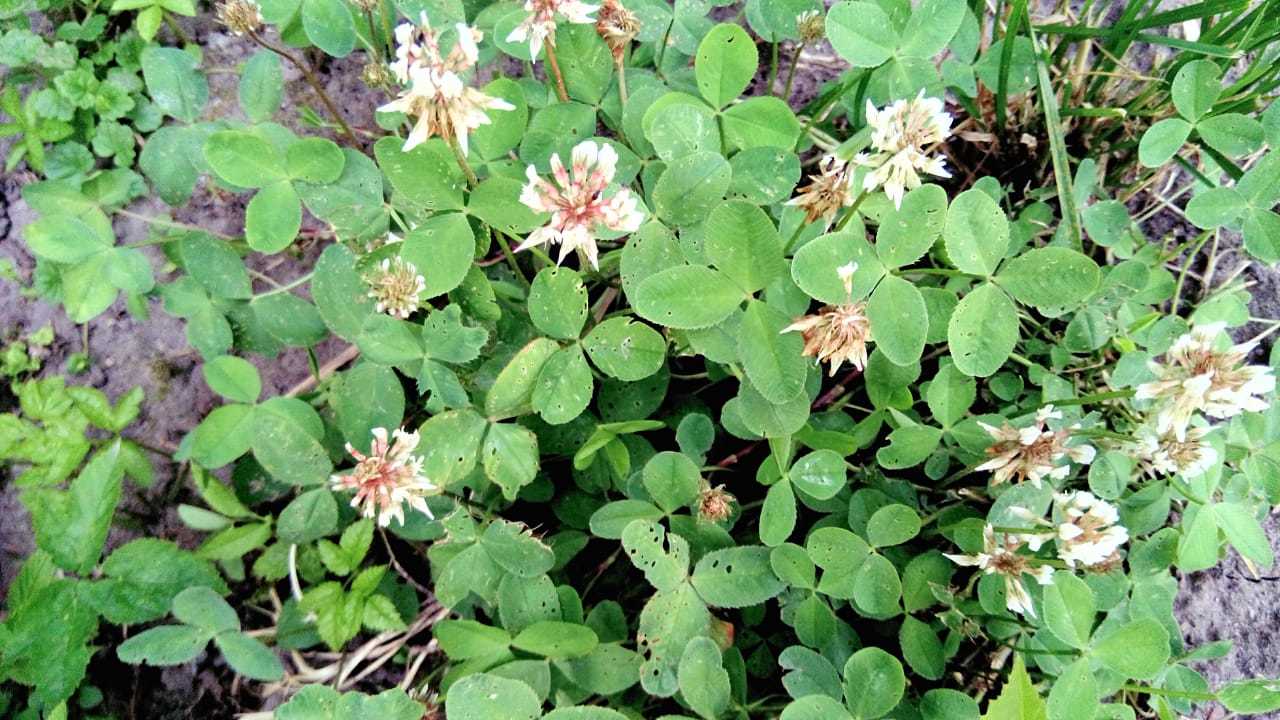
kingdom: Plantae
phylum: Tracheophyta
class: Magnoliopsida
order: Fabales
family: Fabaceae
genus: Trifolium
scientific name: Trifolium repens
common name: White clover
